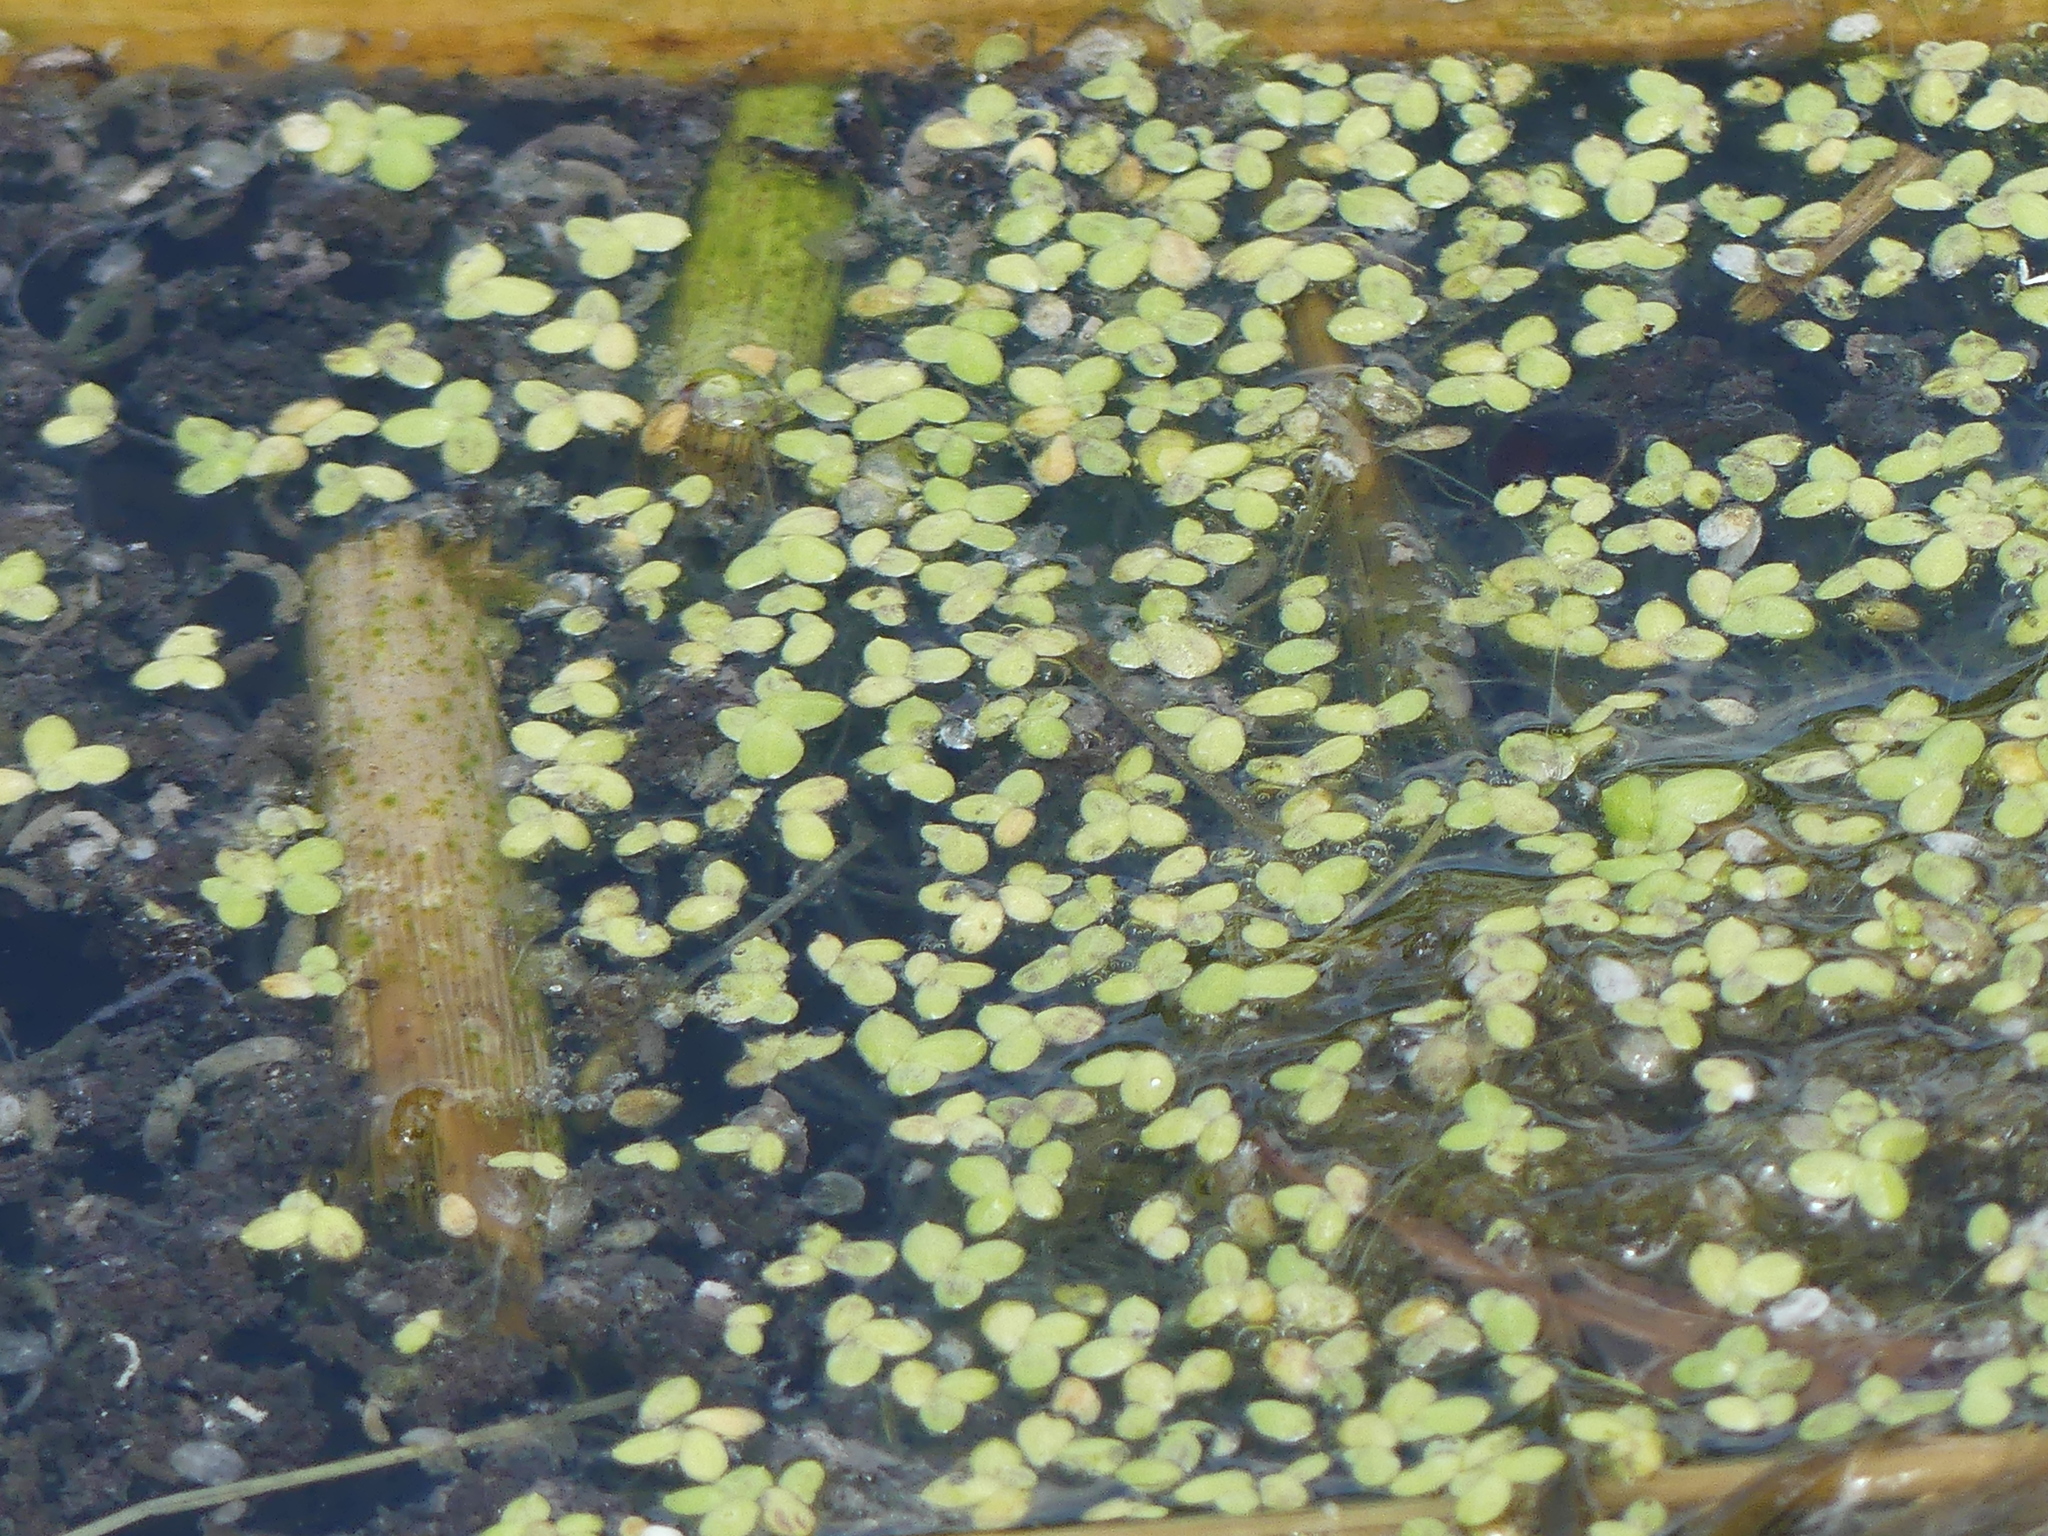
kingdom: Plantae
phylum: Tracheophyta
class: Liliopsida
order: Alismatales
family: Araceae
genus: Lemna
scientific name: Lemna minor
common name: Common duckweed
